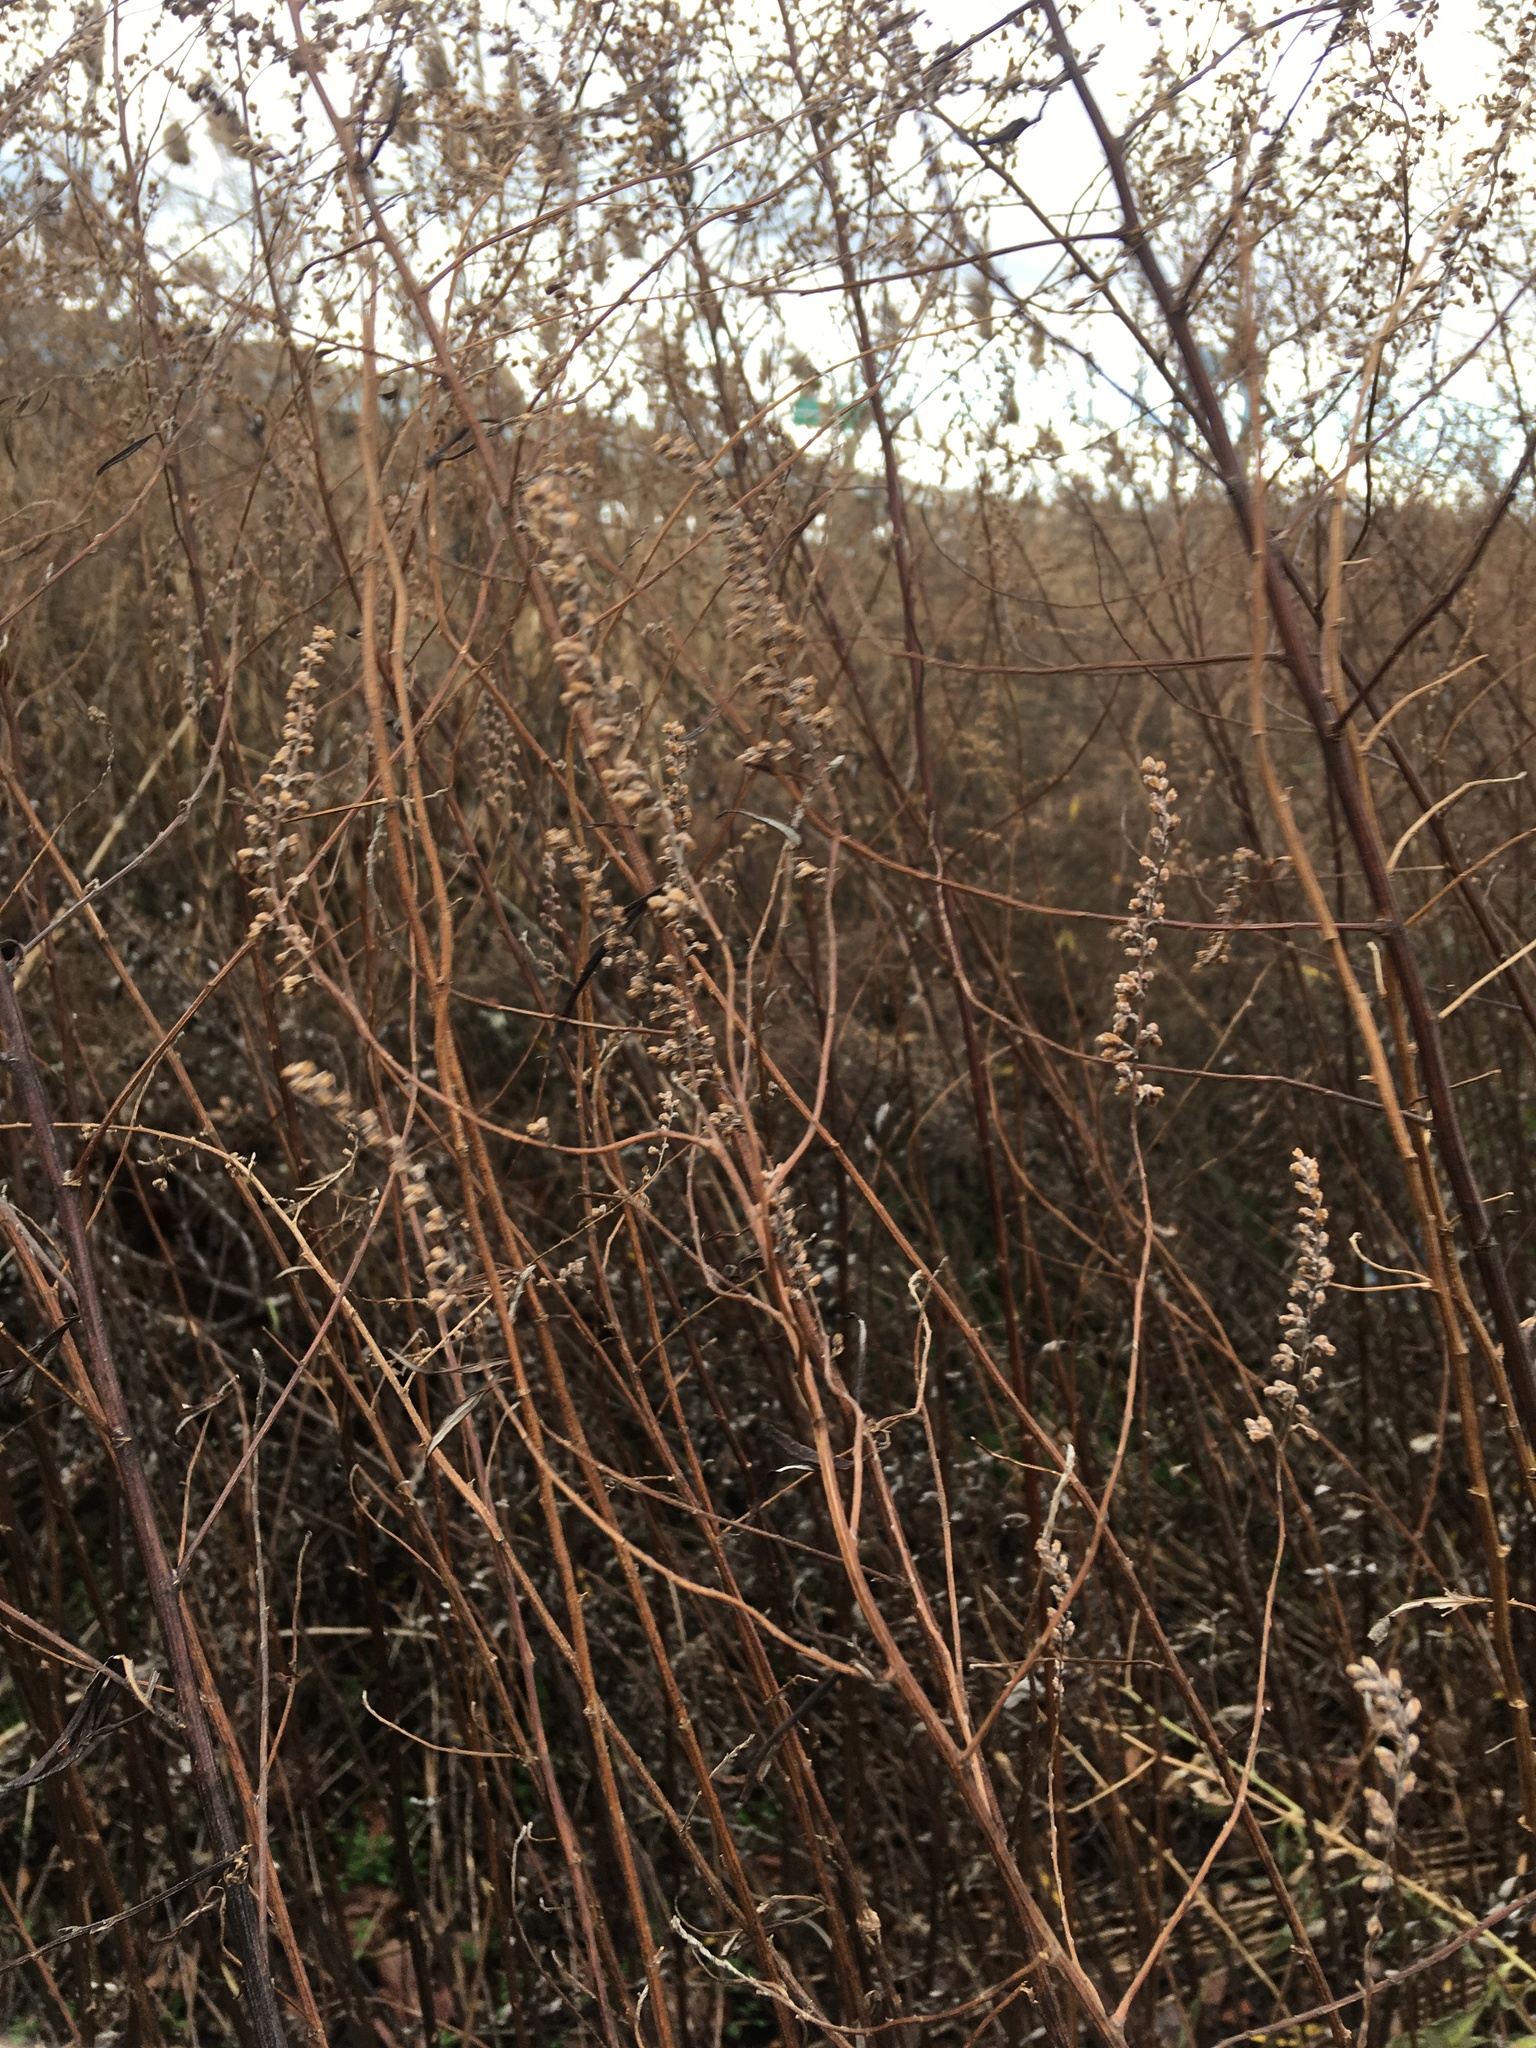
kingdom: Plantae
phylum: Tracheophyta
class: Magnoliopsida
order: Asterales
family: Asteraceae
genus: Artemisia
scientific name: Artemisia vulgaris
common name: Mugwort
